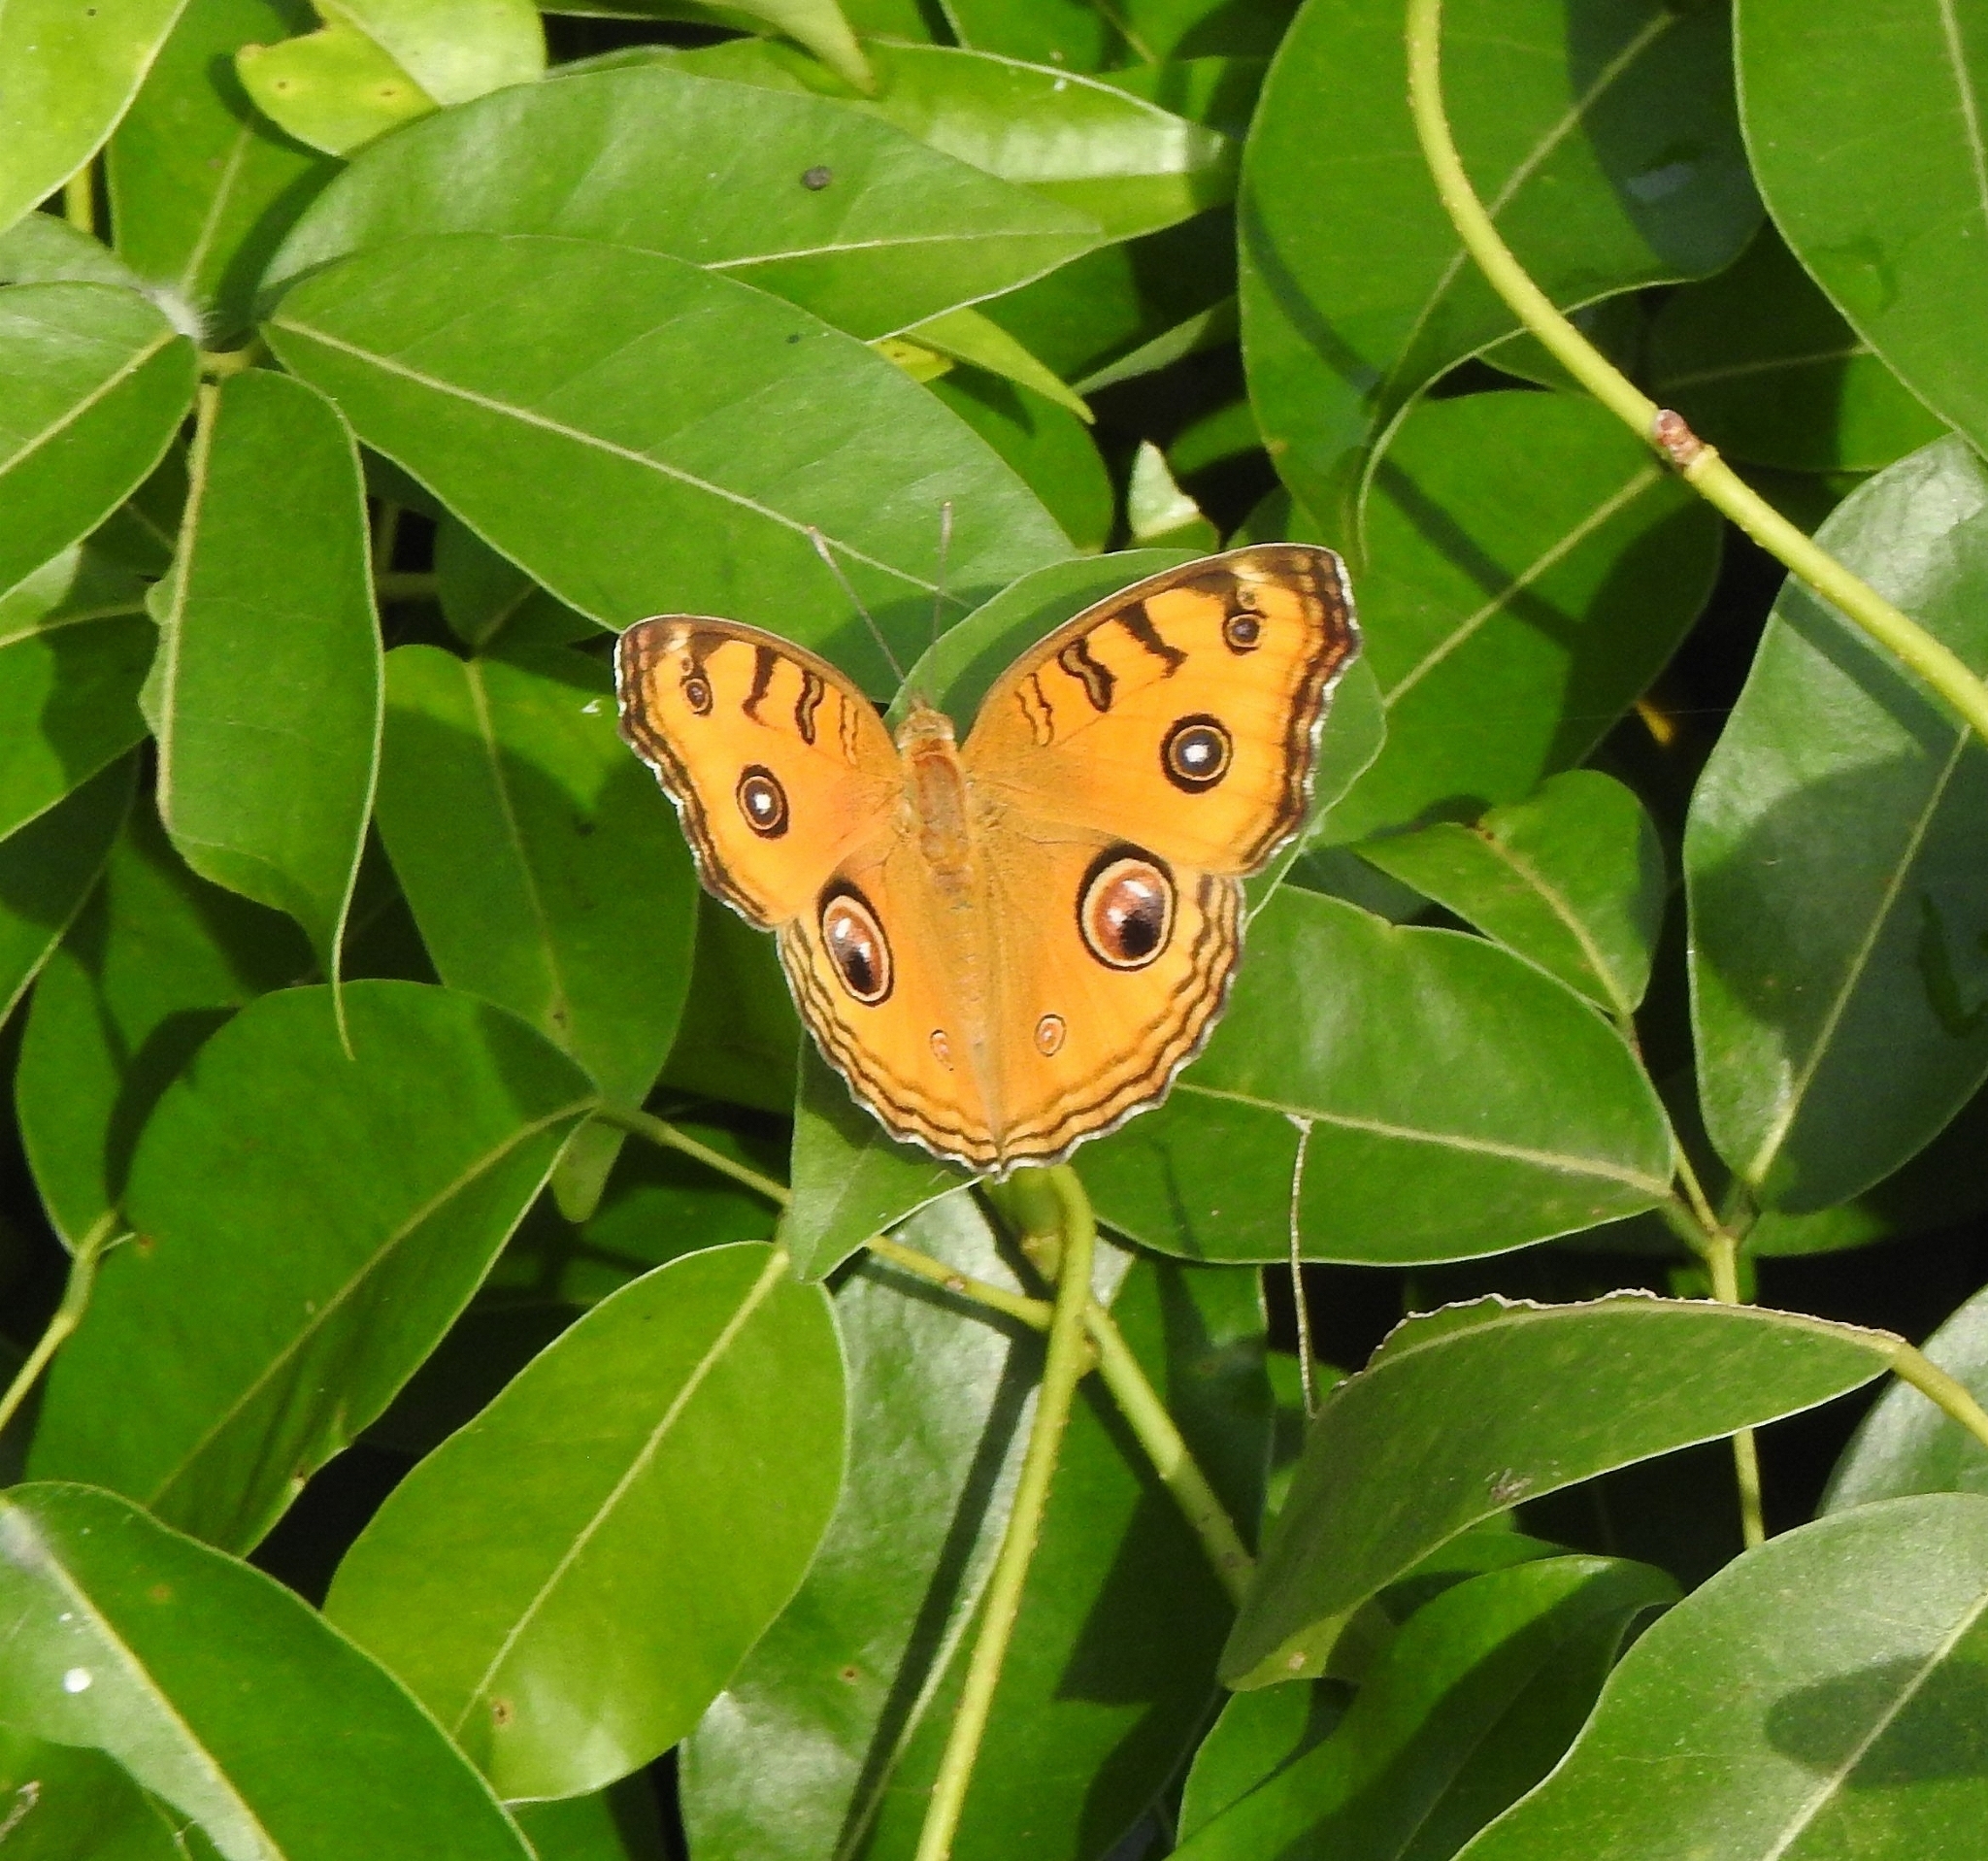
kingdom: Animalia
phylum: Arthropoda
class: Insecta
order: Lepidoptera
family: Nymphalidae
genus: Junonia
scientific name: Junonia almana
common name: Peacock pansy
